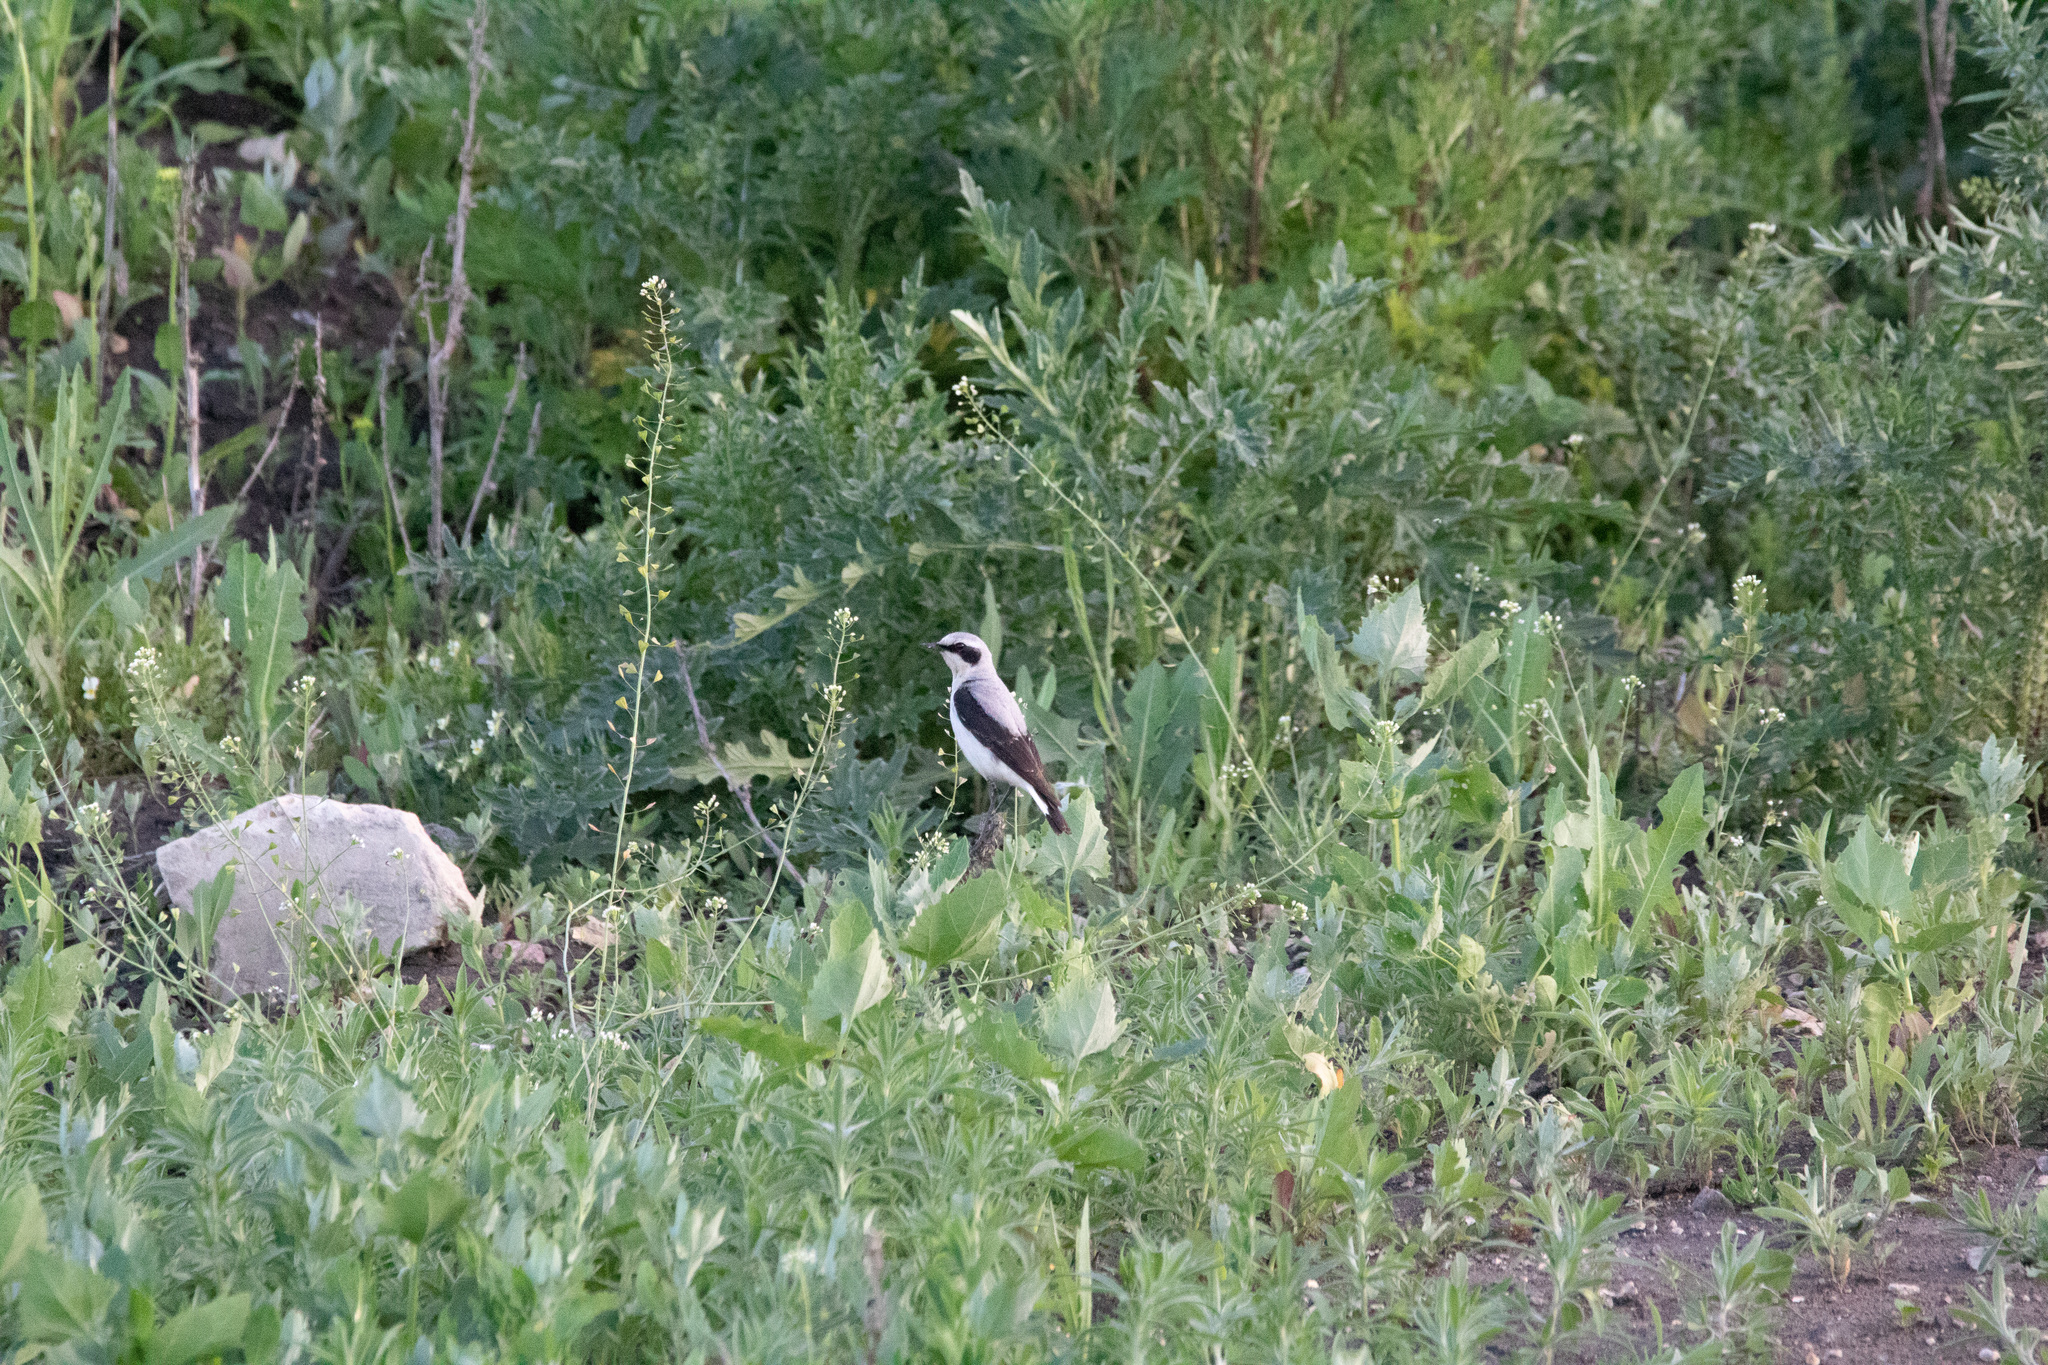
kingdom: Animalia
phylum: Chordata
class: Aves
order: Passeriformes
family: Muscicapidae
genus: Oenanthe
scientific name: Oenanthe oenanthe
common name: Northern wheatear
